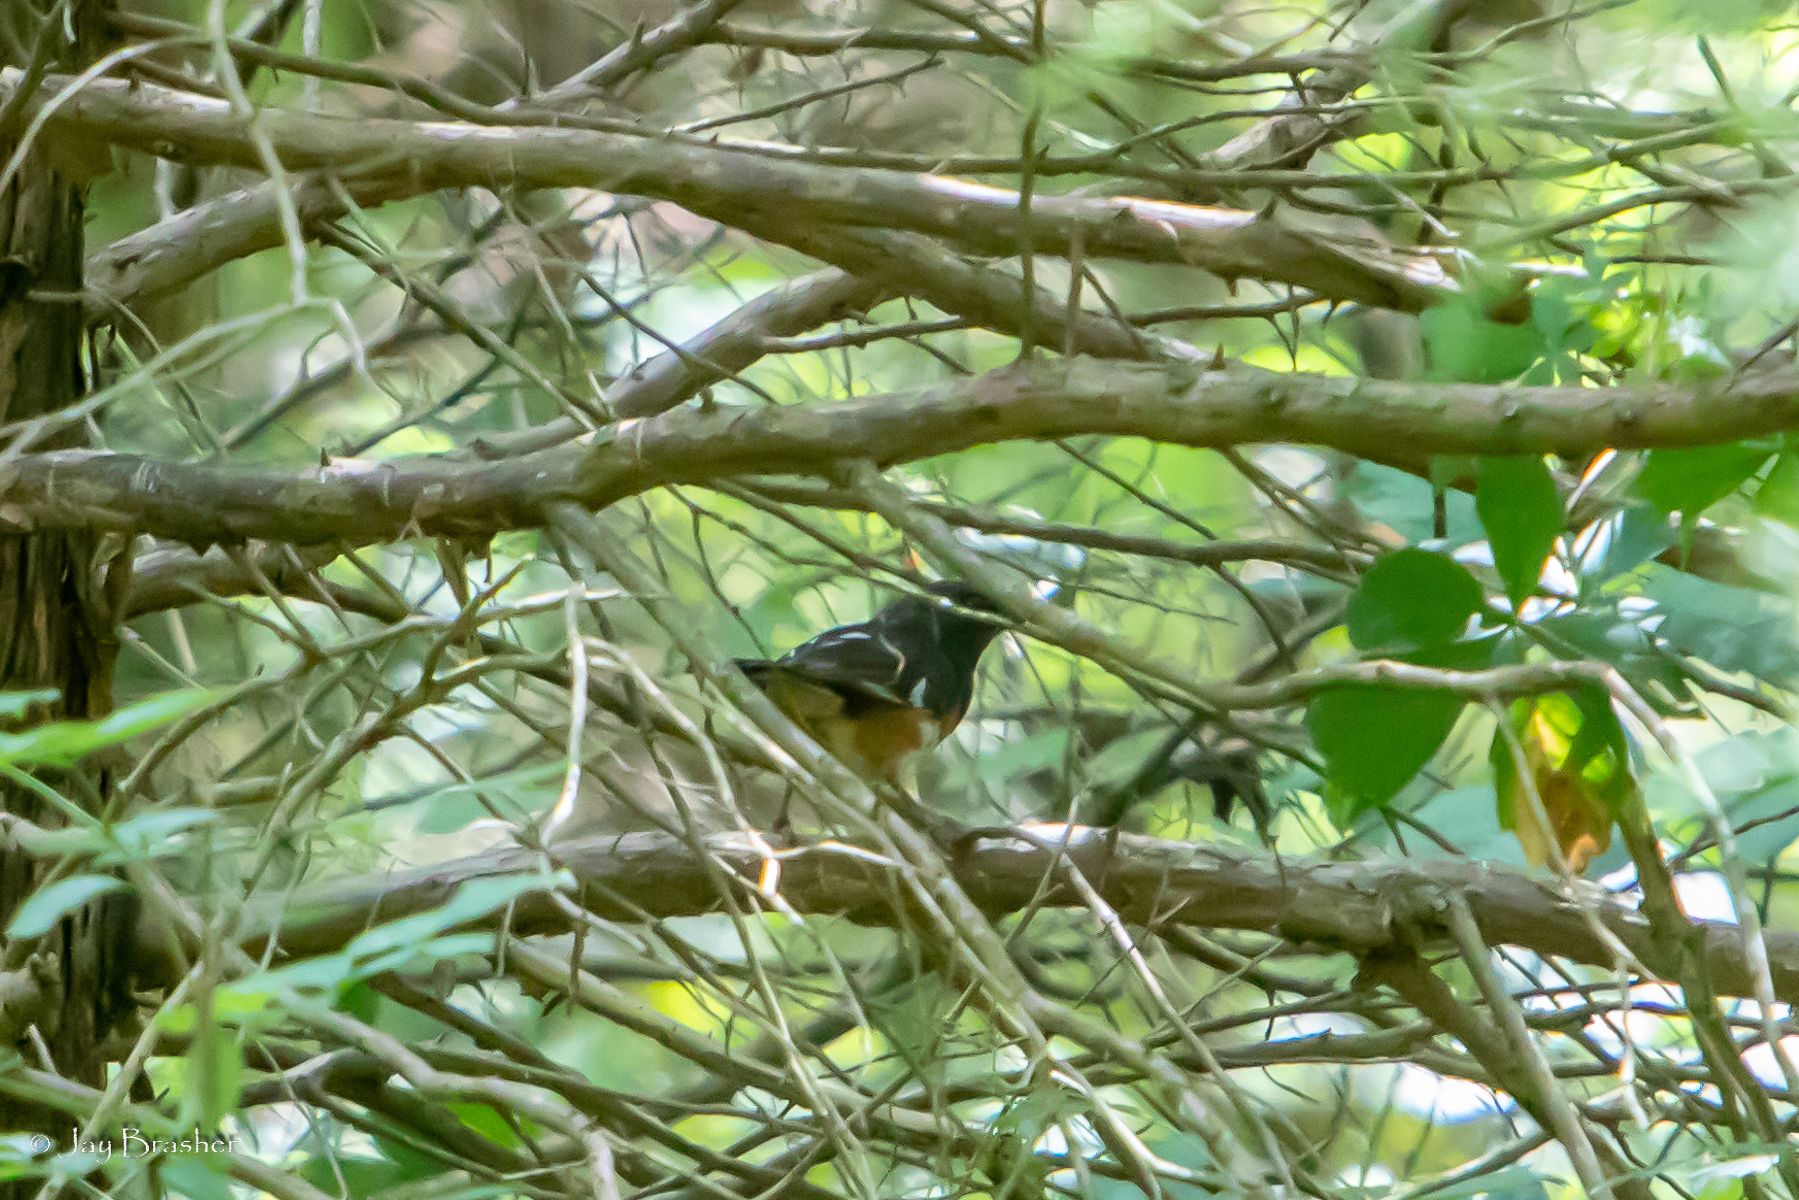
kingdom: Animalia
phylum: Chordata
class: Aves
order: Passeriformes
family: Passerellidae
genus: Pipilo
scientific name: Pipilo erythrophthalmus
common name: Eastern towhee
